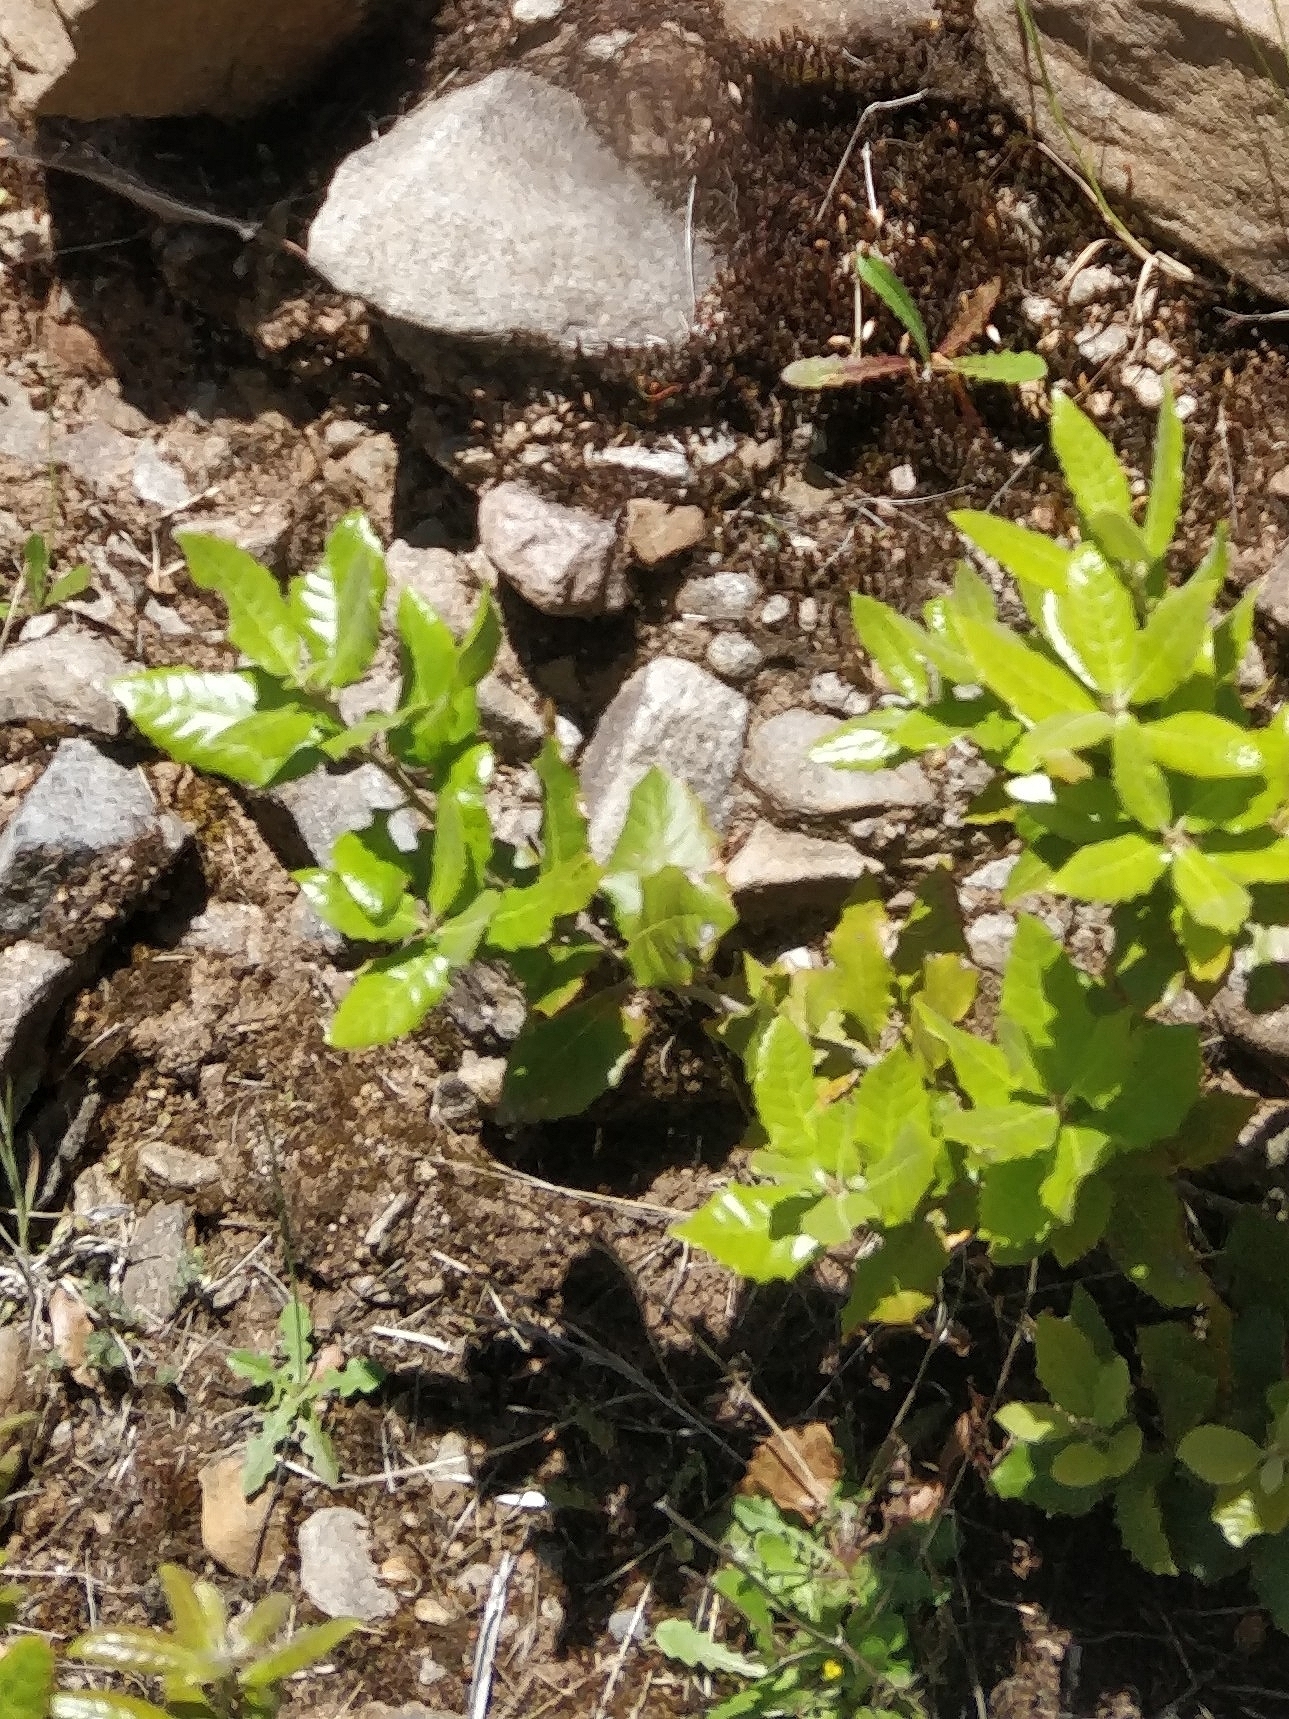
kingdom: Plantae
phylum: Tracheophyta
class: Magnoliopsida
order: Fagales
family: Fagaceae
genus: Quercus
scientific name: Quercus ilex
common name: Evergreen oak
